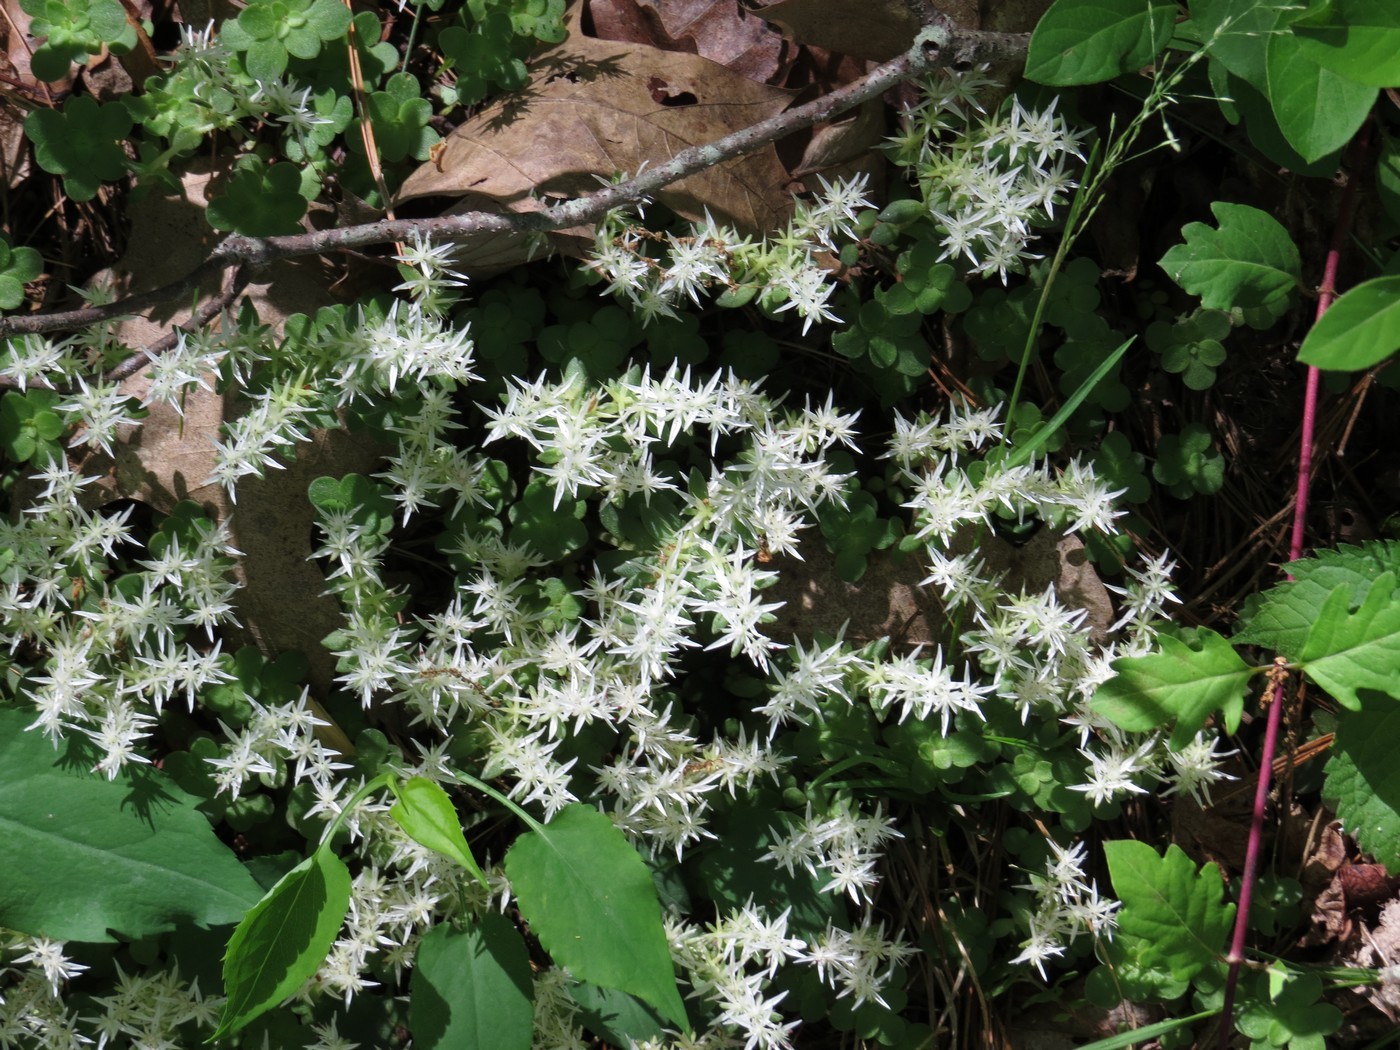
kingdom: Plantae
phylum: Tracheophyta
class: Magnoliopsida
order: Saxifragales
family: Crassulaceae
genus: Sedum
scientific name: Sedum ternatum
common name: Wild stonecrop
